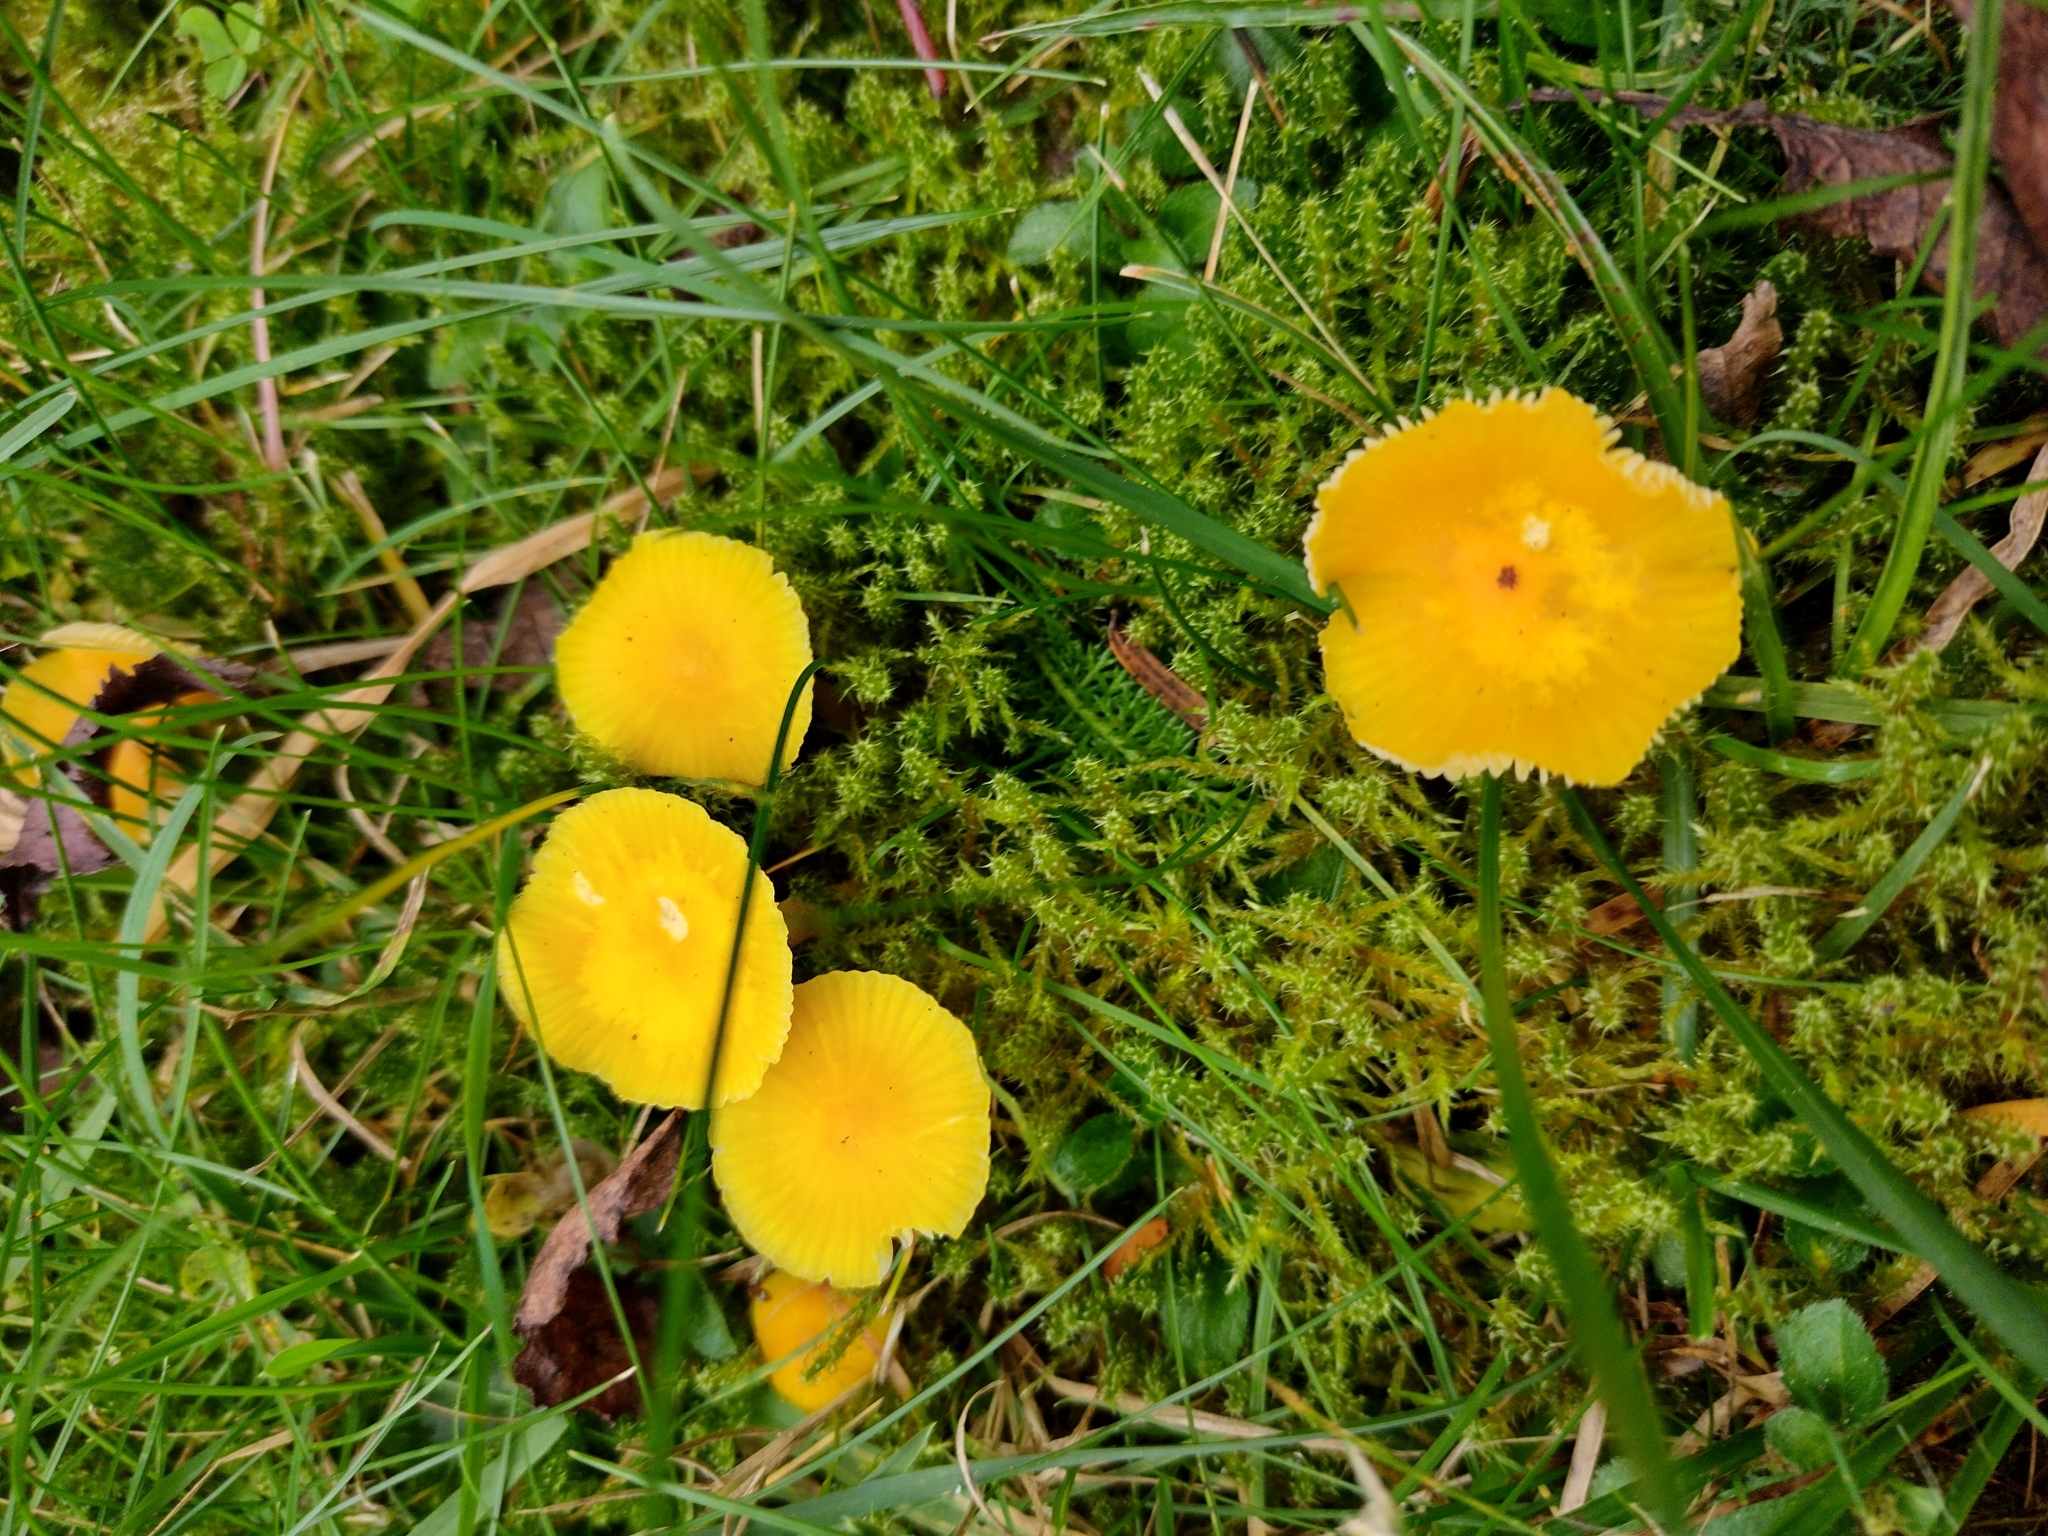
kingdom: Fungi
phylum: Basidiomycota
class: Agaricomycetes
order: Agaricales
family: Hygrophoraceae
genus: Hygrocybe
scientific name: Hygrocybe ceracea
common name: Butter waxcap
